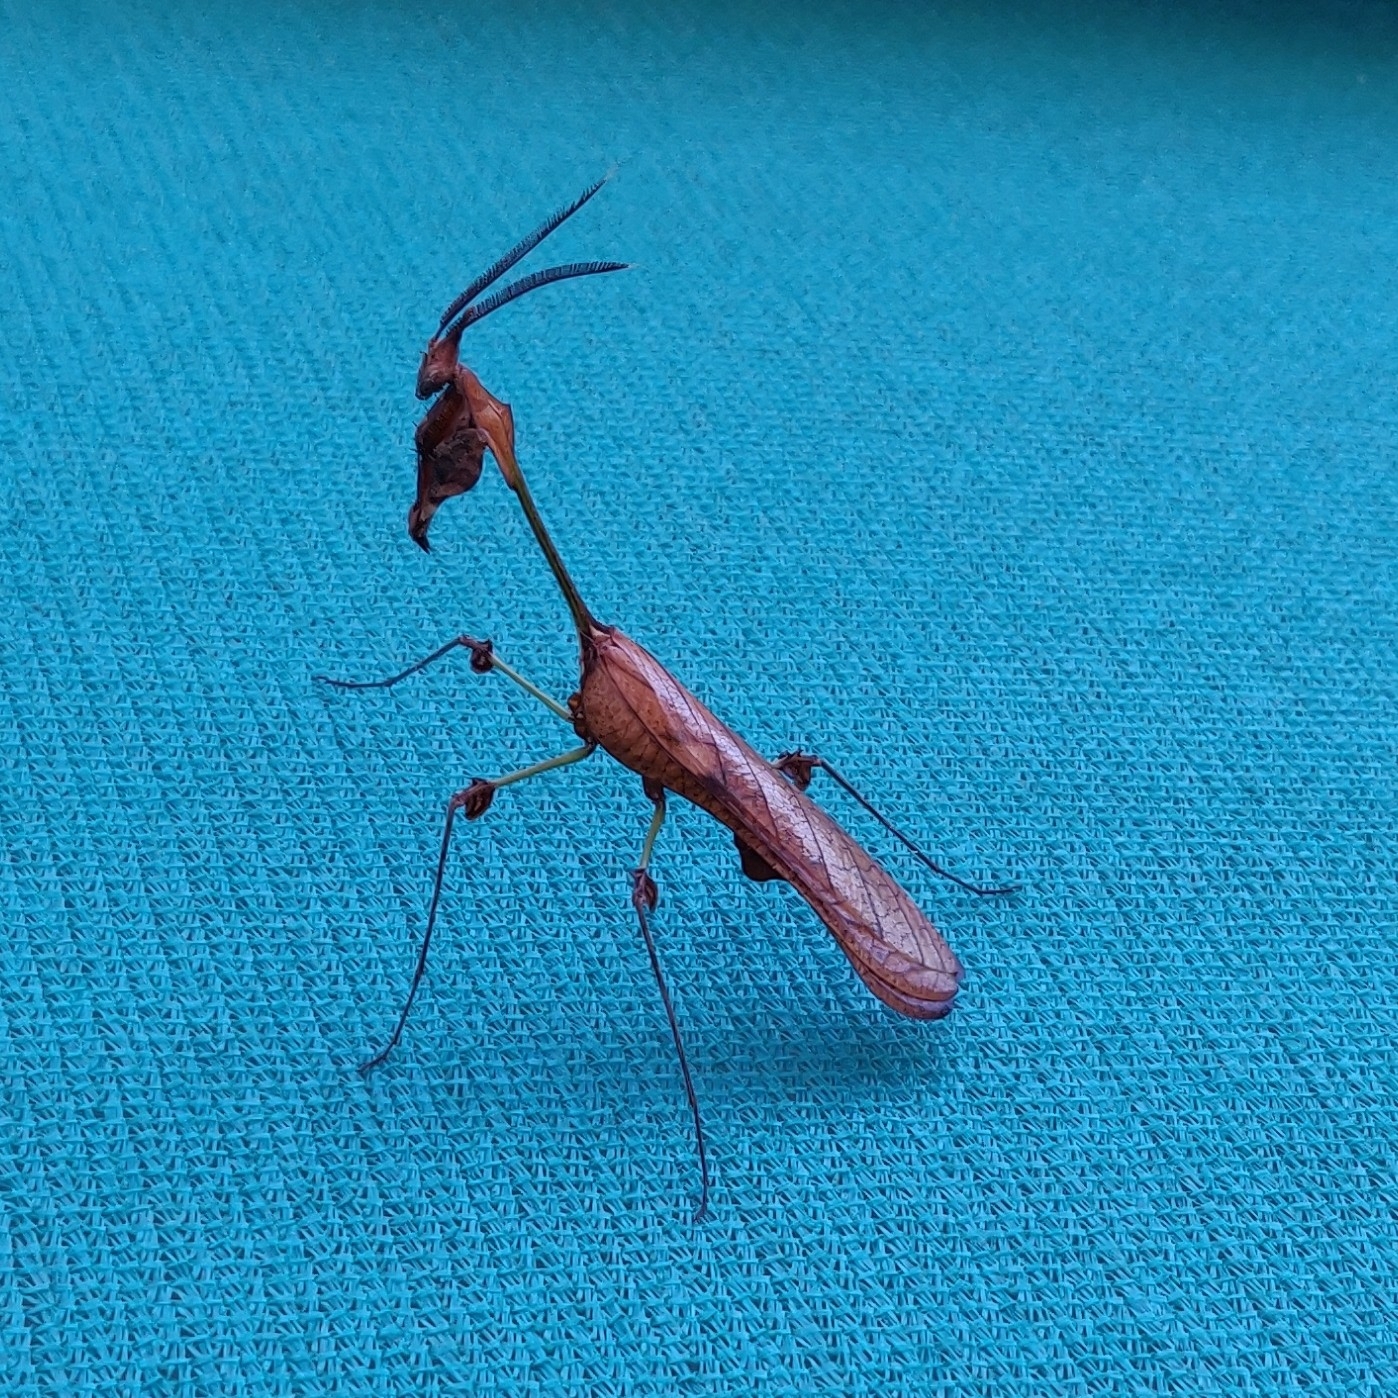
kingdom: Animalia
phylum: Arthropoda
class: Insecta
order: Mantodea
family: Empusidae
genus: Gongylus
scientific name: Gongylus gongylodes
